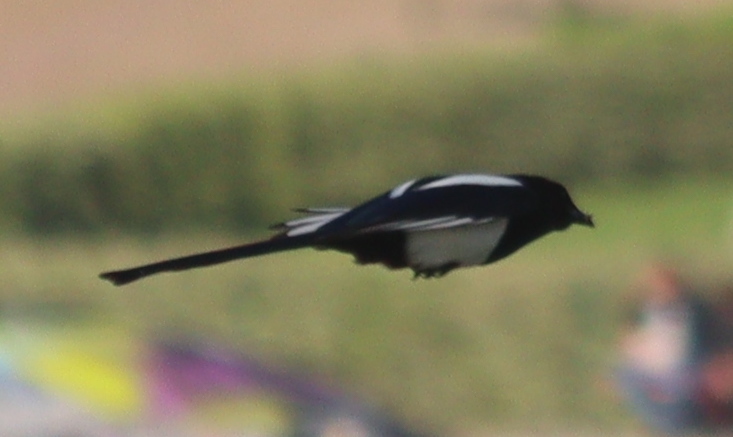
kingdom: Animalia
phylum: Chordata
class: Aves
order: Passeriformes
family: Corvidae
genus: Pica
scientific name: Pica pica
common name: Eurasian magpie
